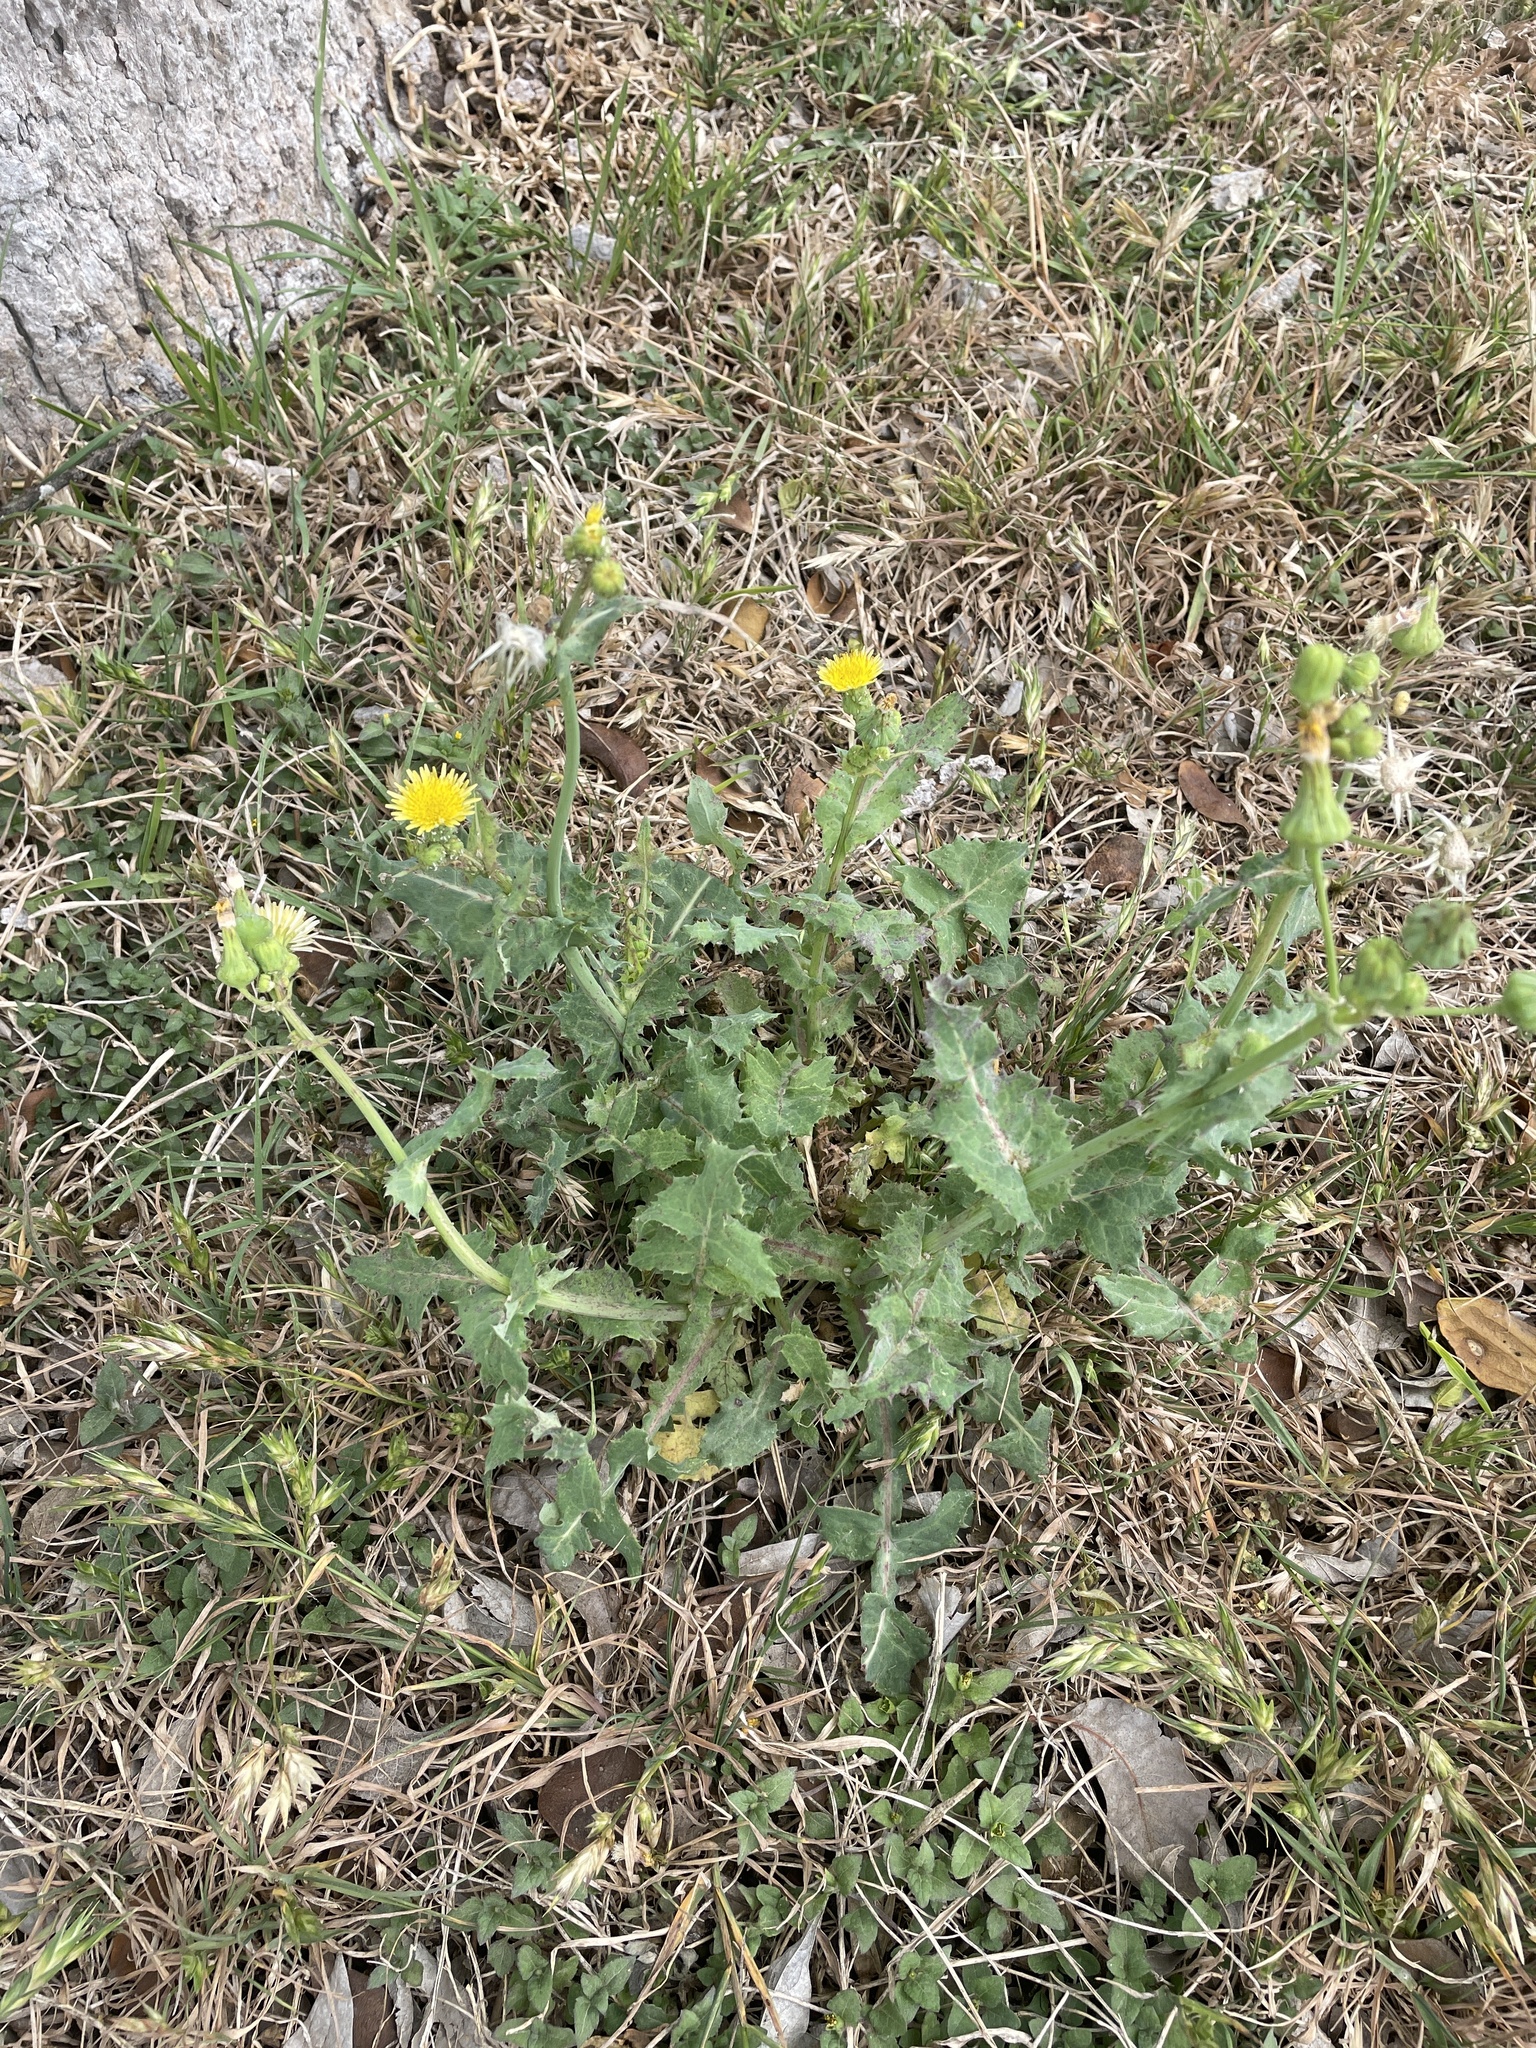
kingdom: Plantae
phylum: Tracheophyta
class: Magnoliopsida
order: Asterales
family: Asteraceae
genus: Sonchus
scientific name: Sonchus oleraceus
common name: Common sowthistle
